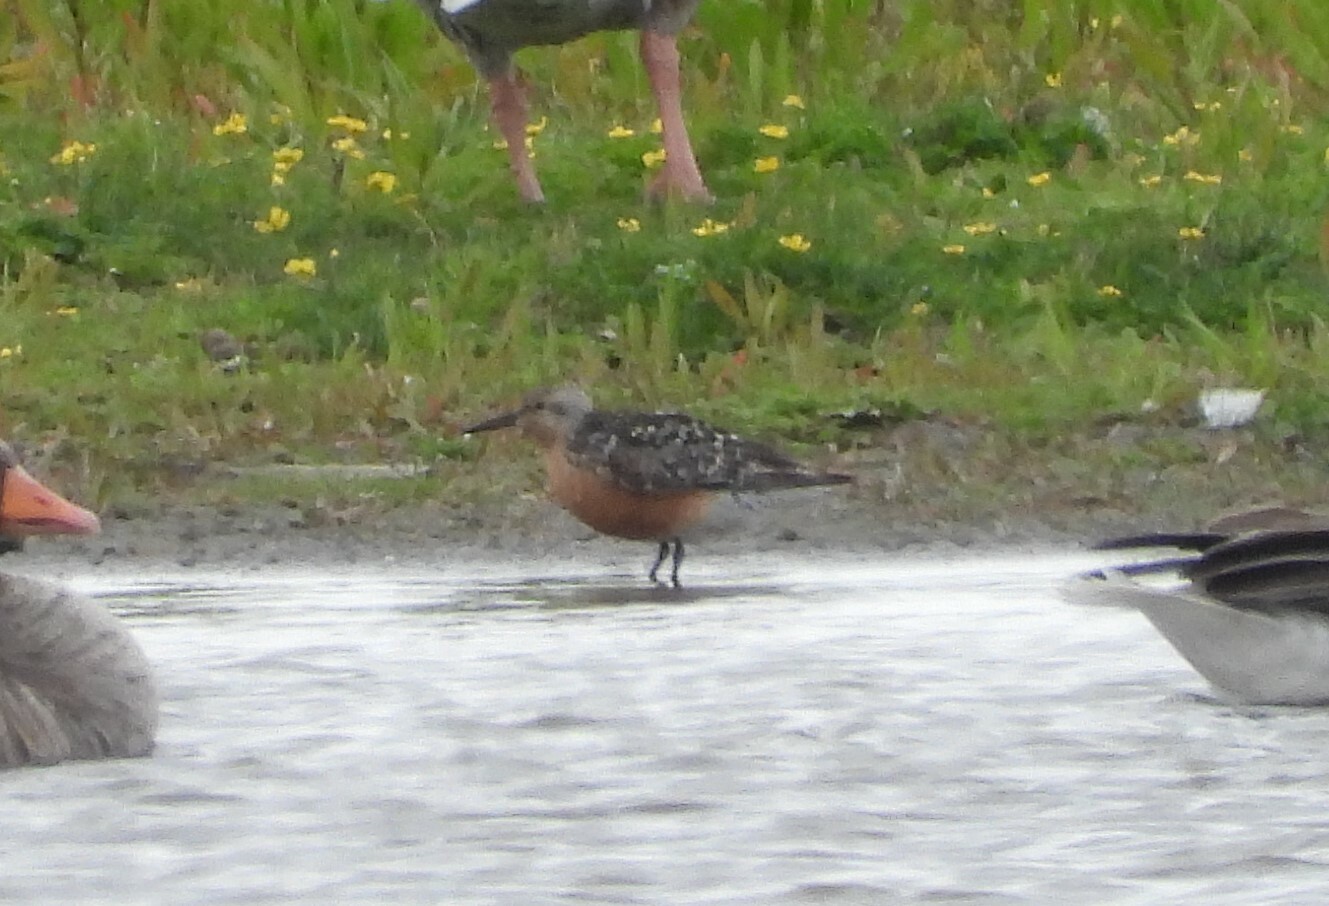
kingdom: Animalia
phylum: Chordata
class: Aves
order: Charadriiformes
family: Scolopacidae
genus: Calidris
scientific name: Calidris canutus
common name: Red knot
